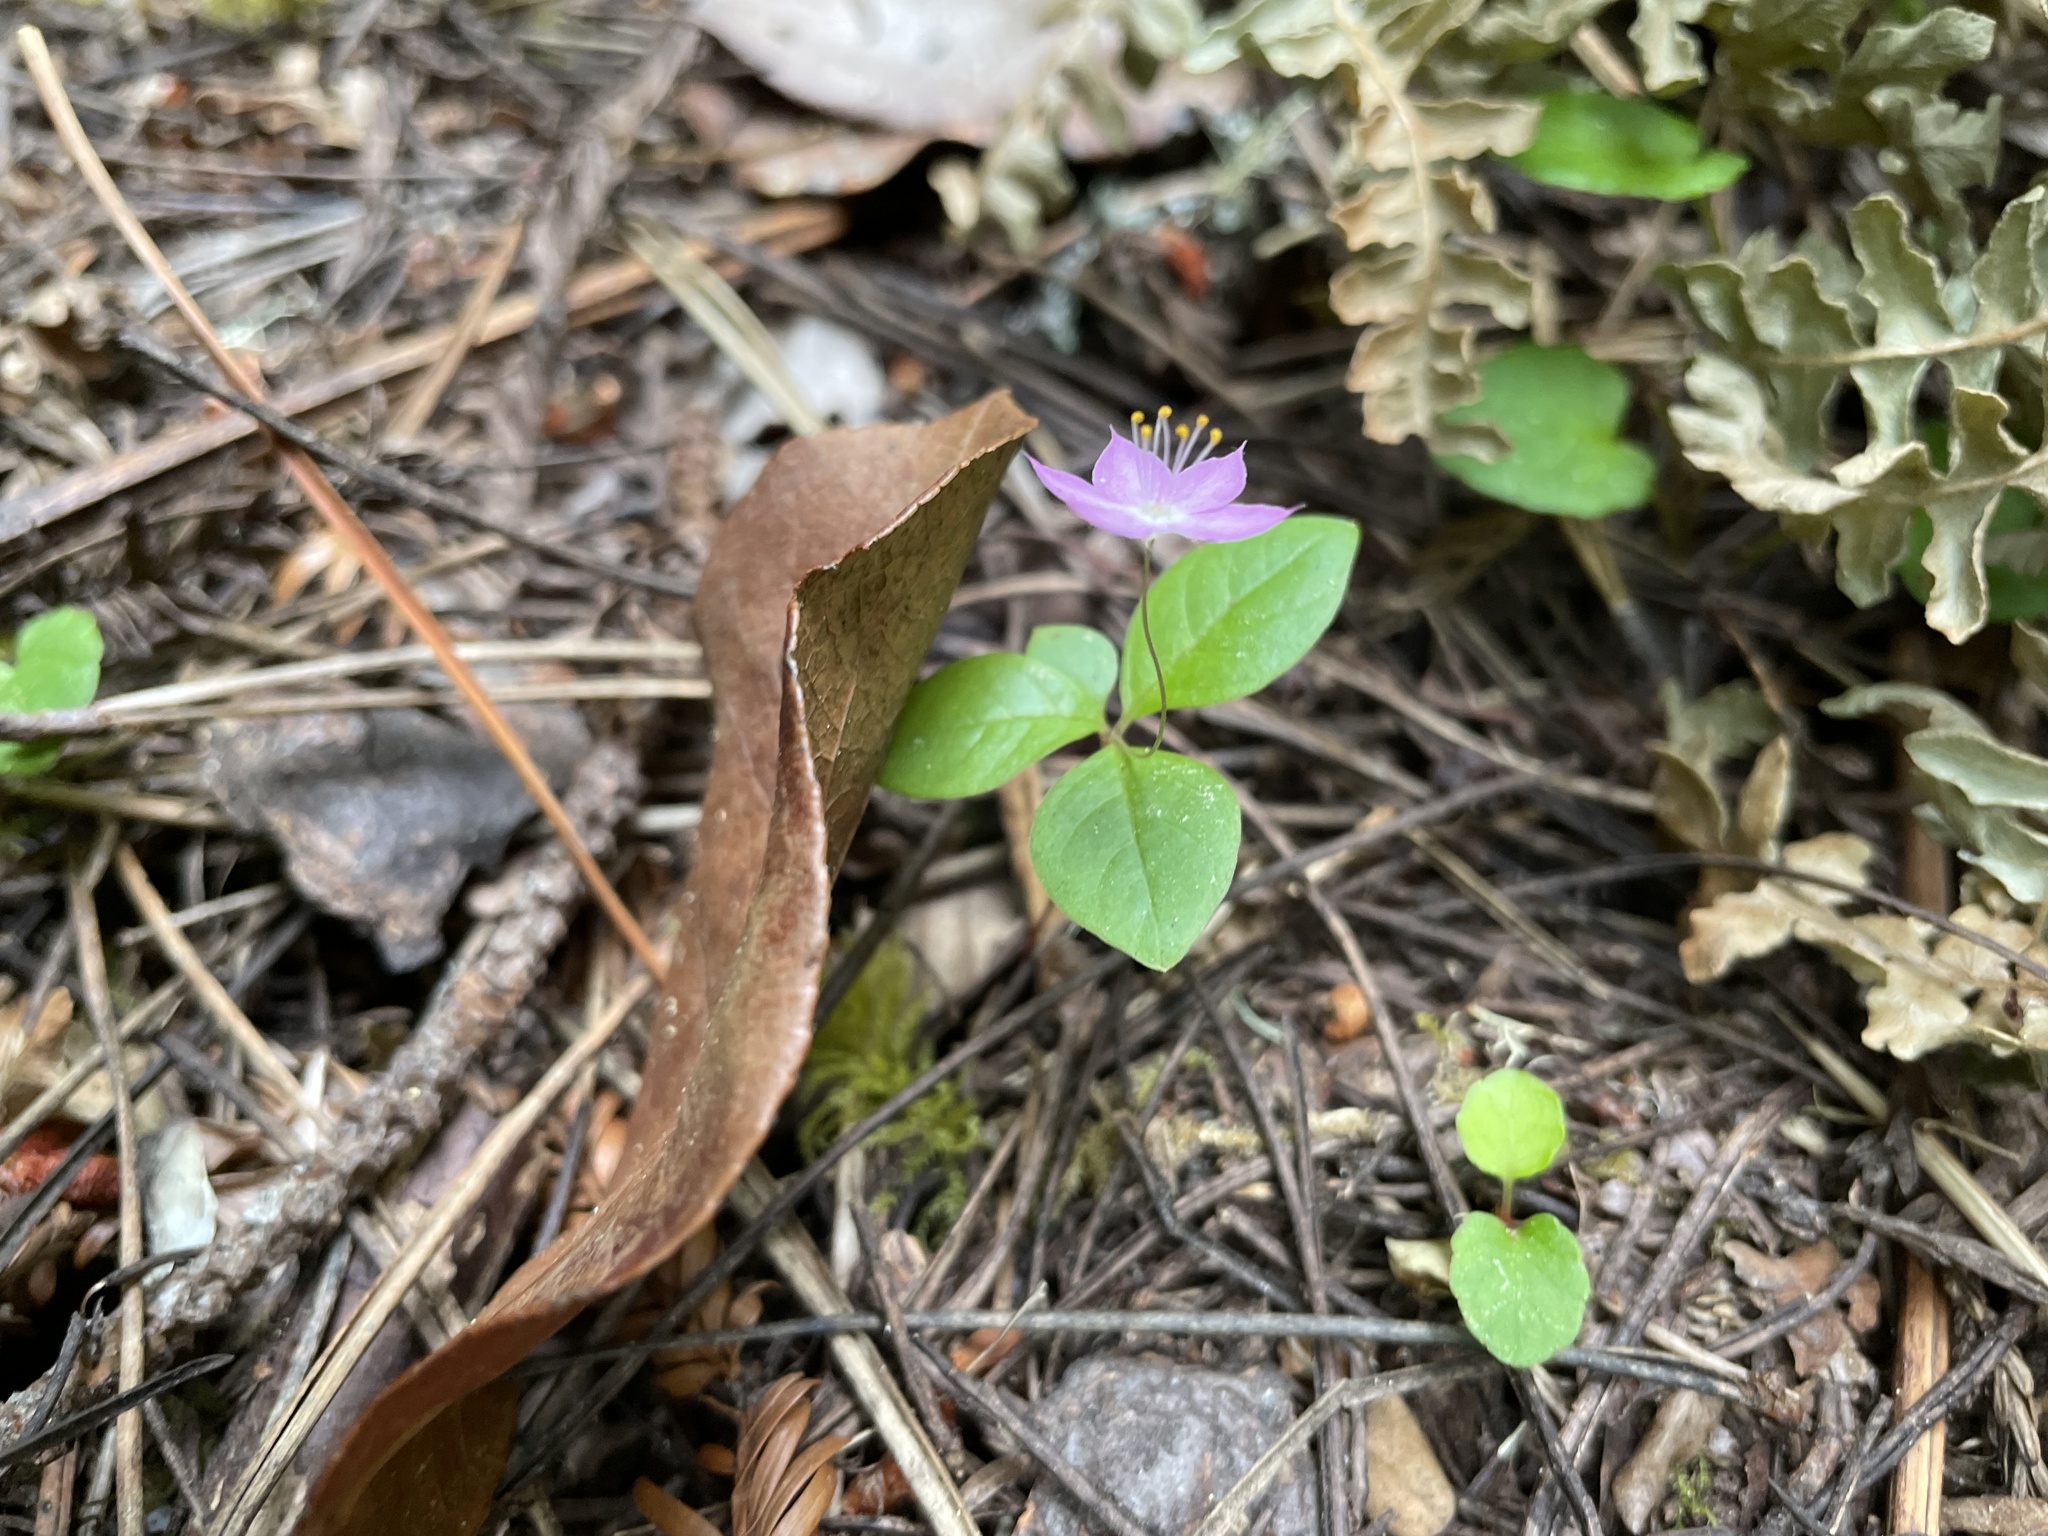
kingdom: Plantae
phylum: Tracheophyta
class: Magnoliopsida
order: Ericales
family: Primulaceae
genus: Lysimachia
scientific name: Lysimachia latifolia
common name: Pacific starflower
